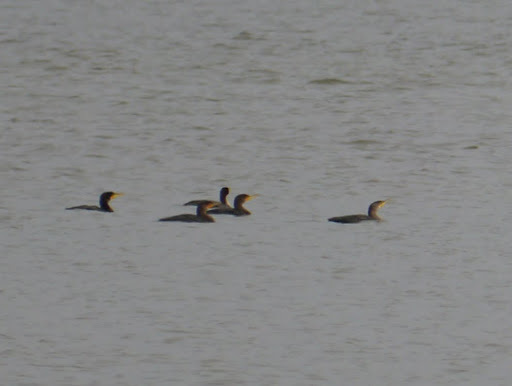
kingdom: Animalia
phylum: Chordata
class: Aves
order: Suliformes
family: Phalacrocoracidae
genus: Phalacrocorax
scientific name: Phalacrocorax auritus
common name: Double-crested cormorant
